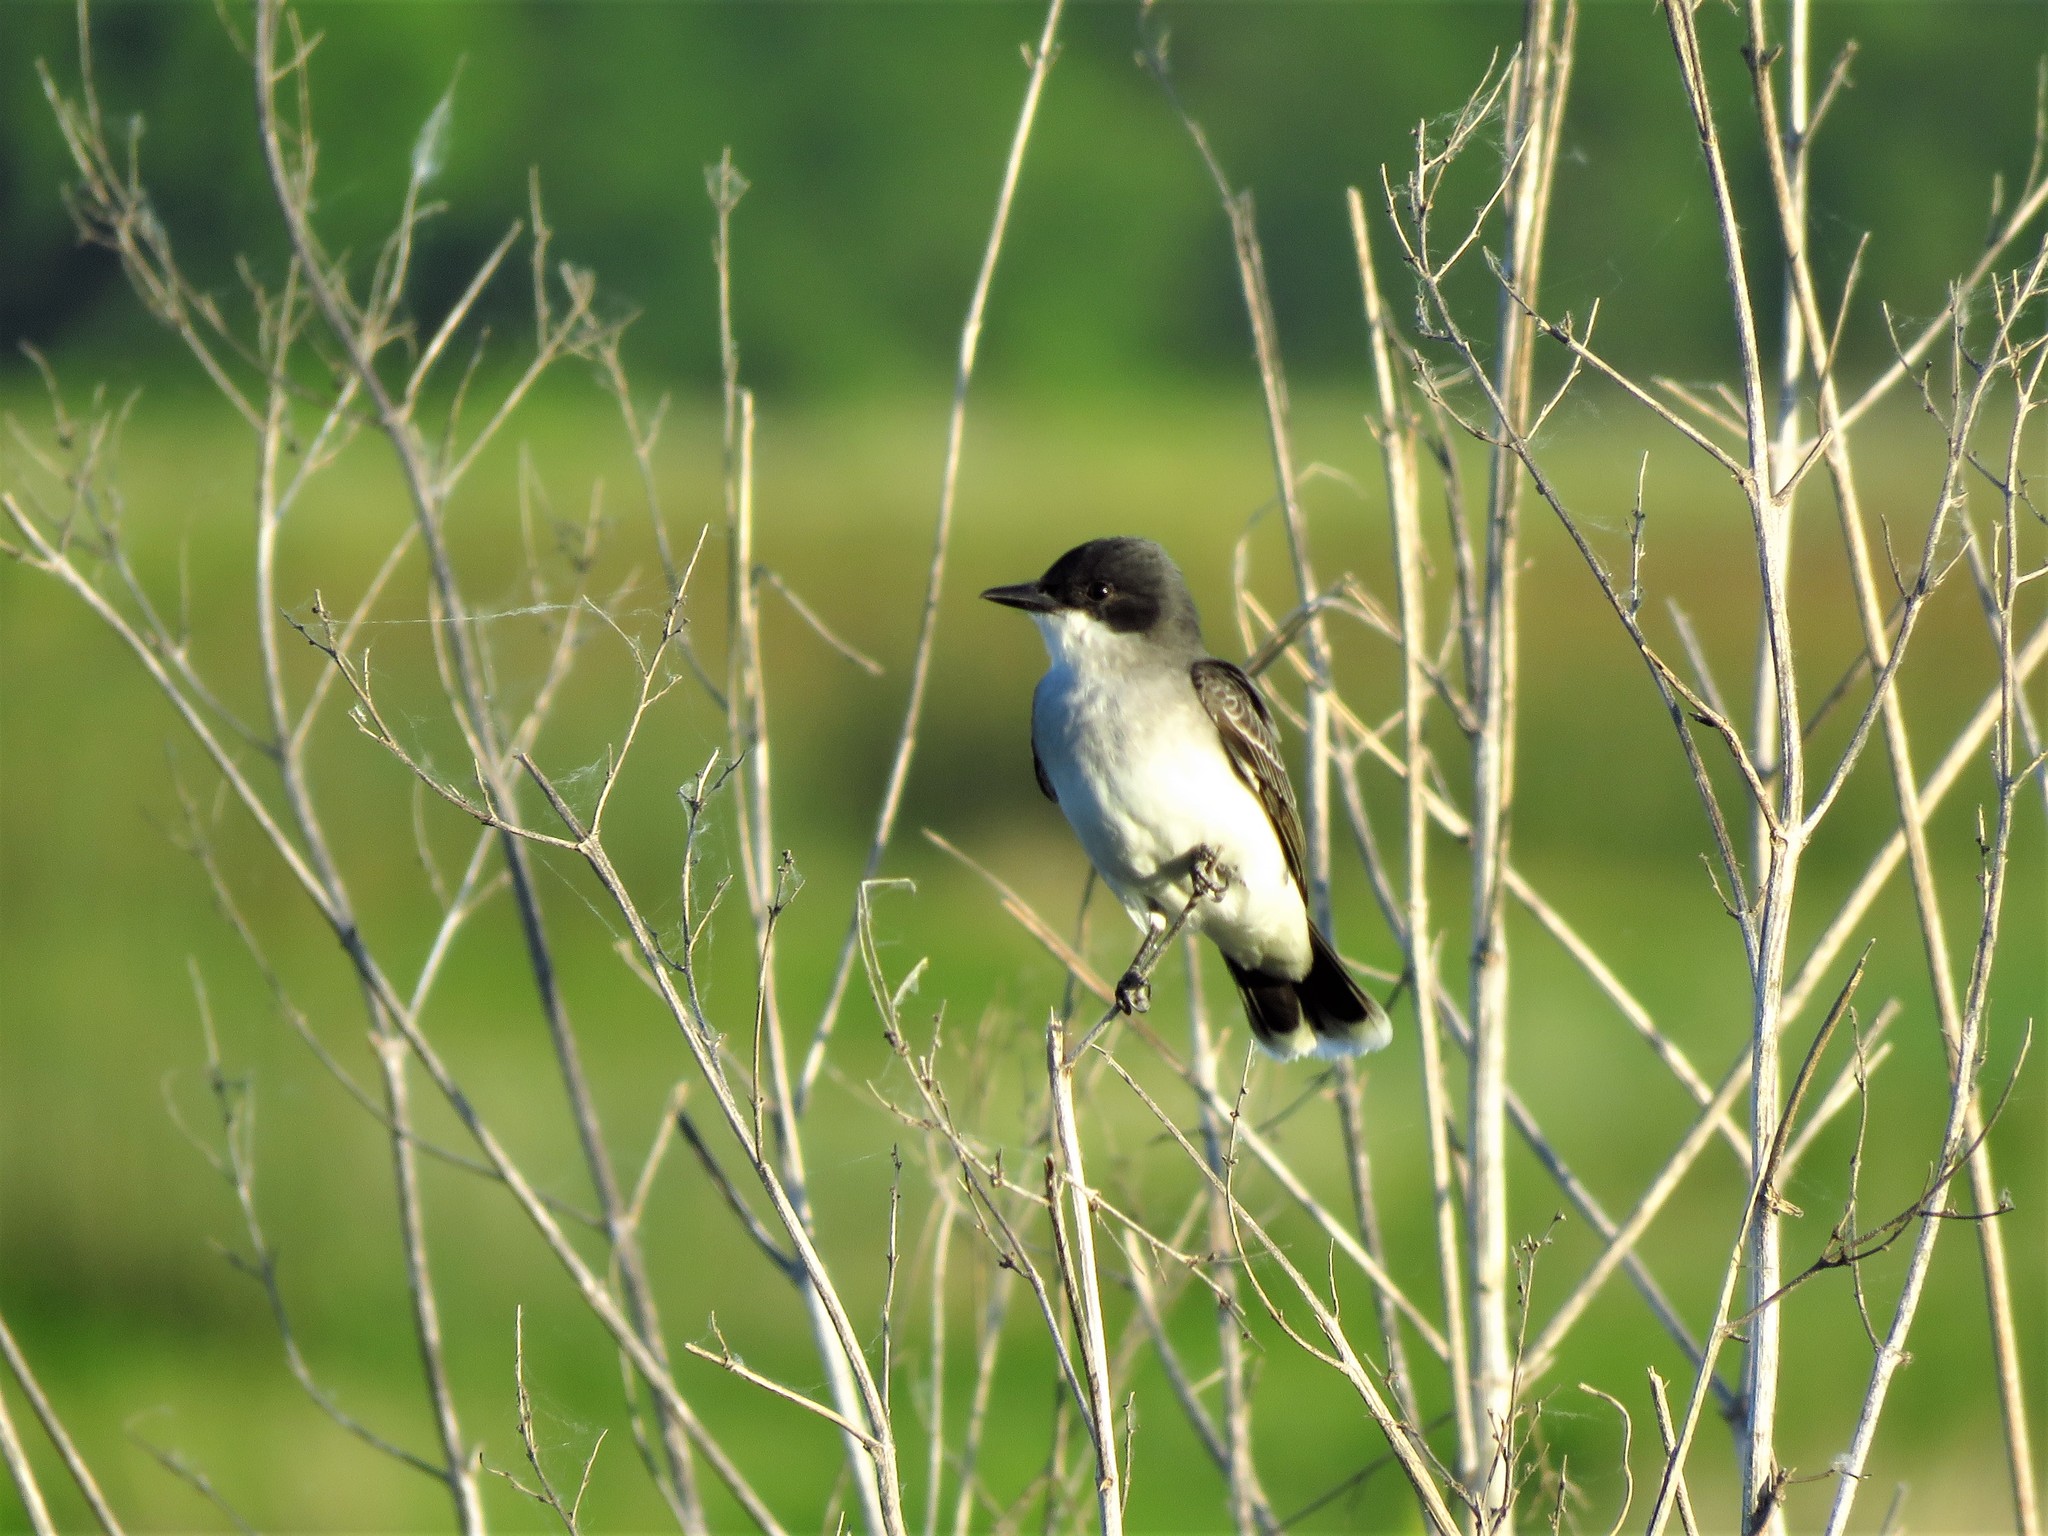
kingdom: Animalia
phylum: Chordata
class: Aves
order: Passeriformes
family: Tyrannidae
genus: Tyrannus
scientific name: Tyrannus tyrannus
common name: Eastern kingbird
